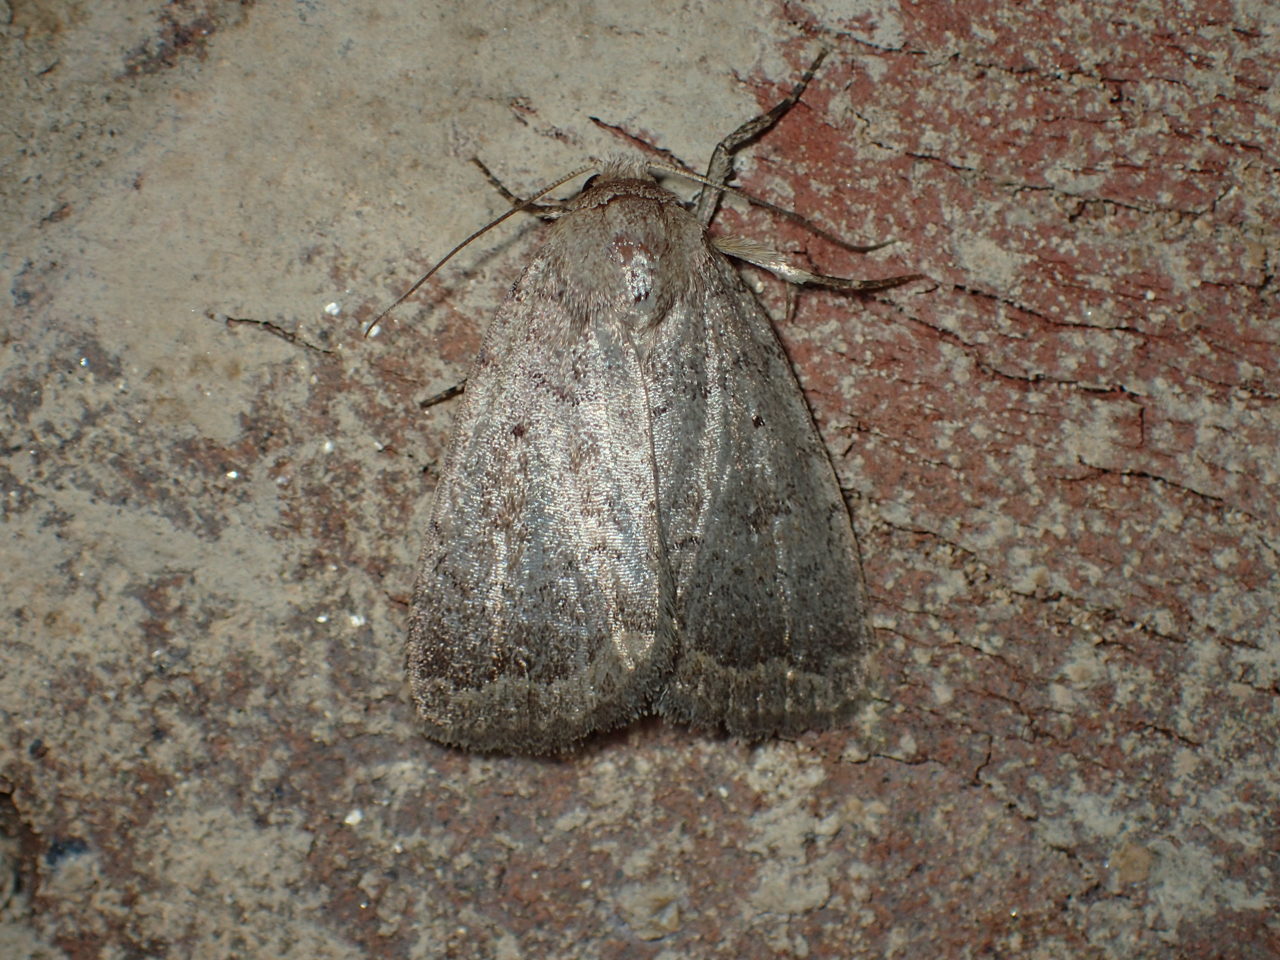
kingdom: Animalia
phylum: Arthropoda
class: Insecta
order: Lepidoptera
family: Noctuidae
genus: Athetis
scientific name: Athetis tarda
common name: Slowpoke moth
